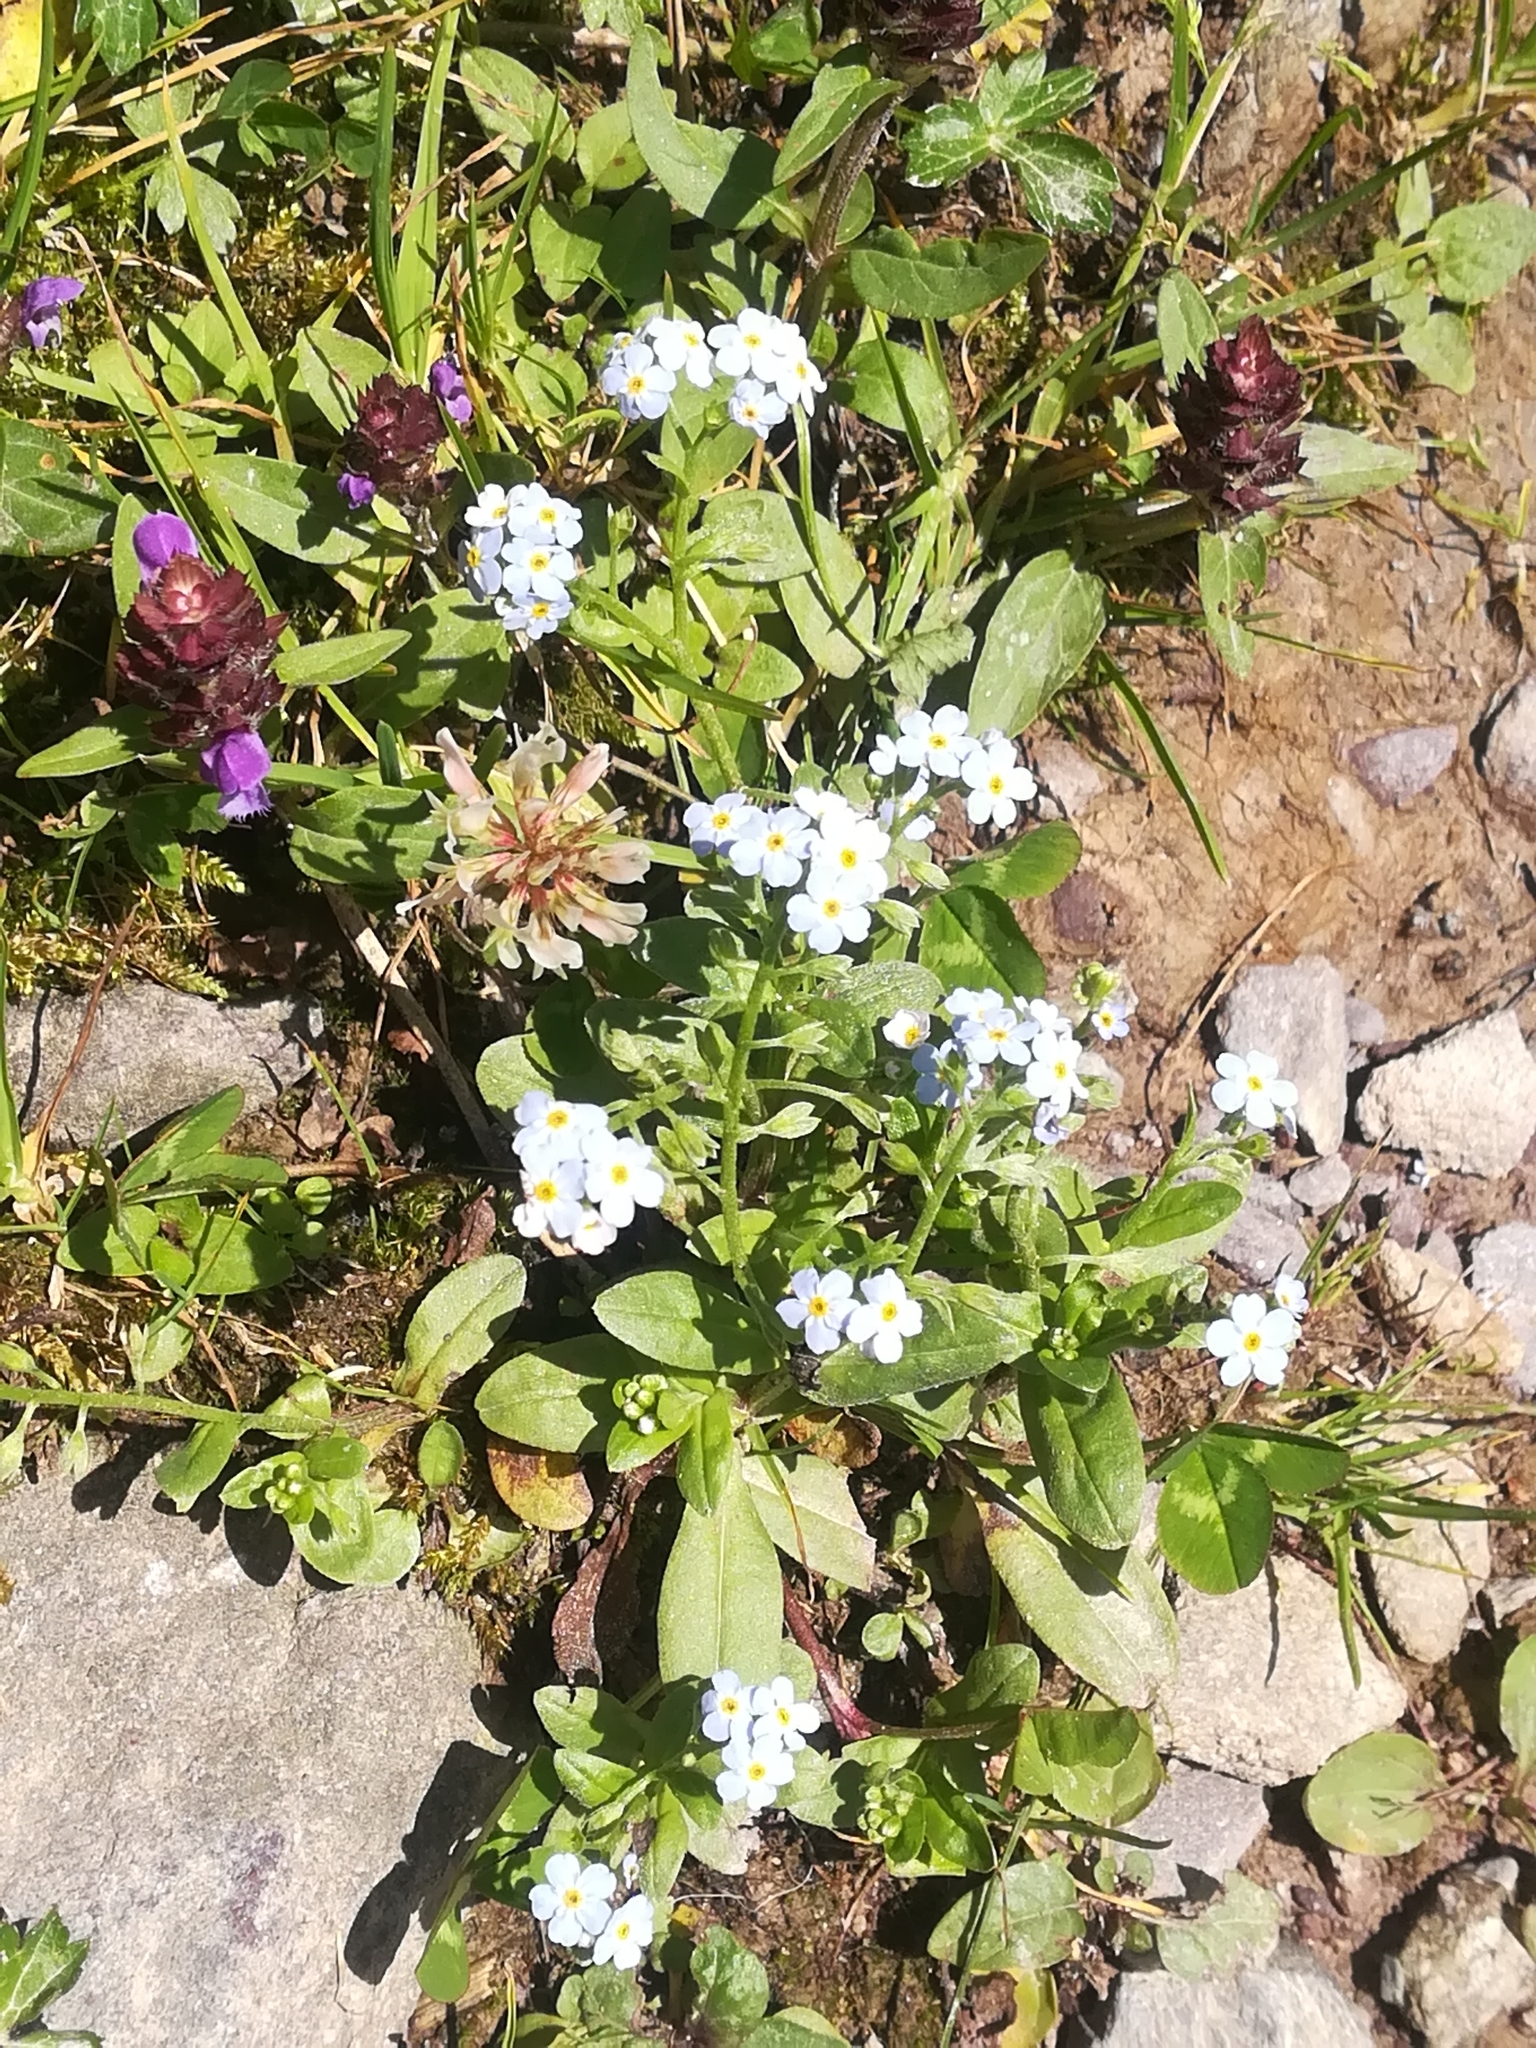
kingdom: Plantae
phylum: Tracheophyta
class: Magnoliopsida
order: Boraginales
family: Boraginaceae
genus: Myosotis
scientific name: Myosotis scorpioides
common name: Water forget-me-not
